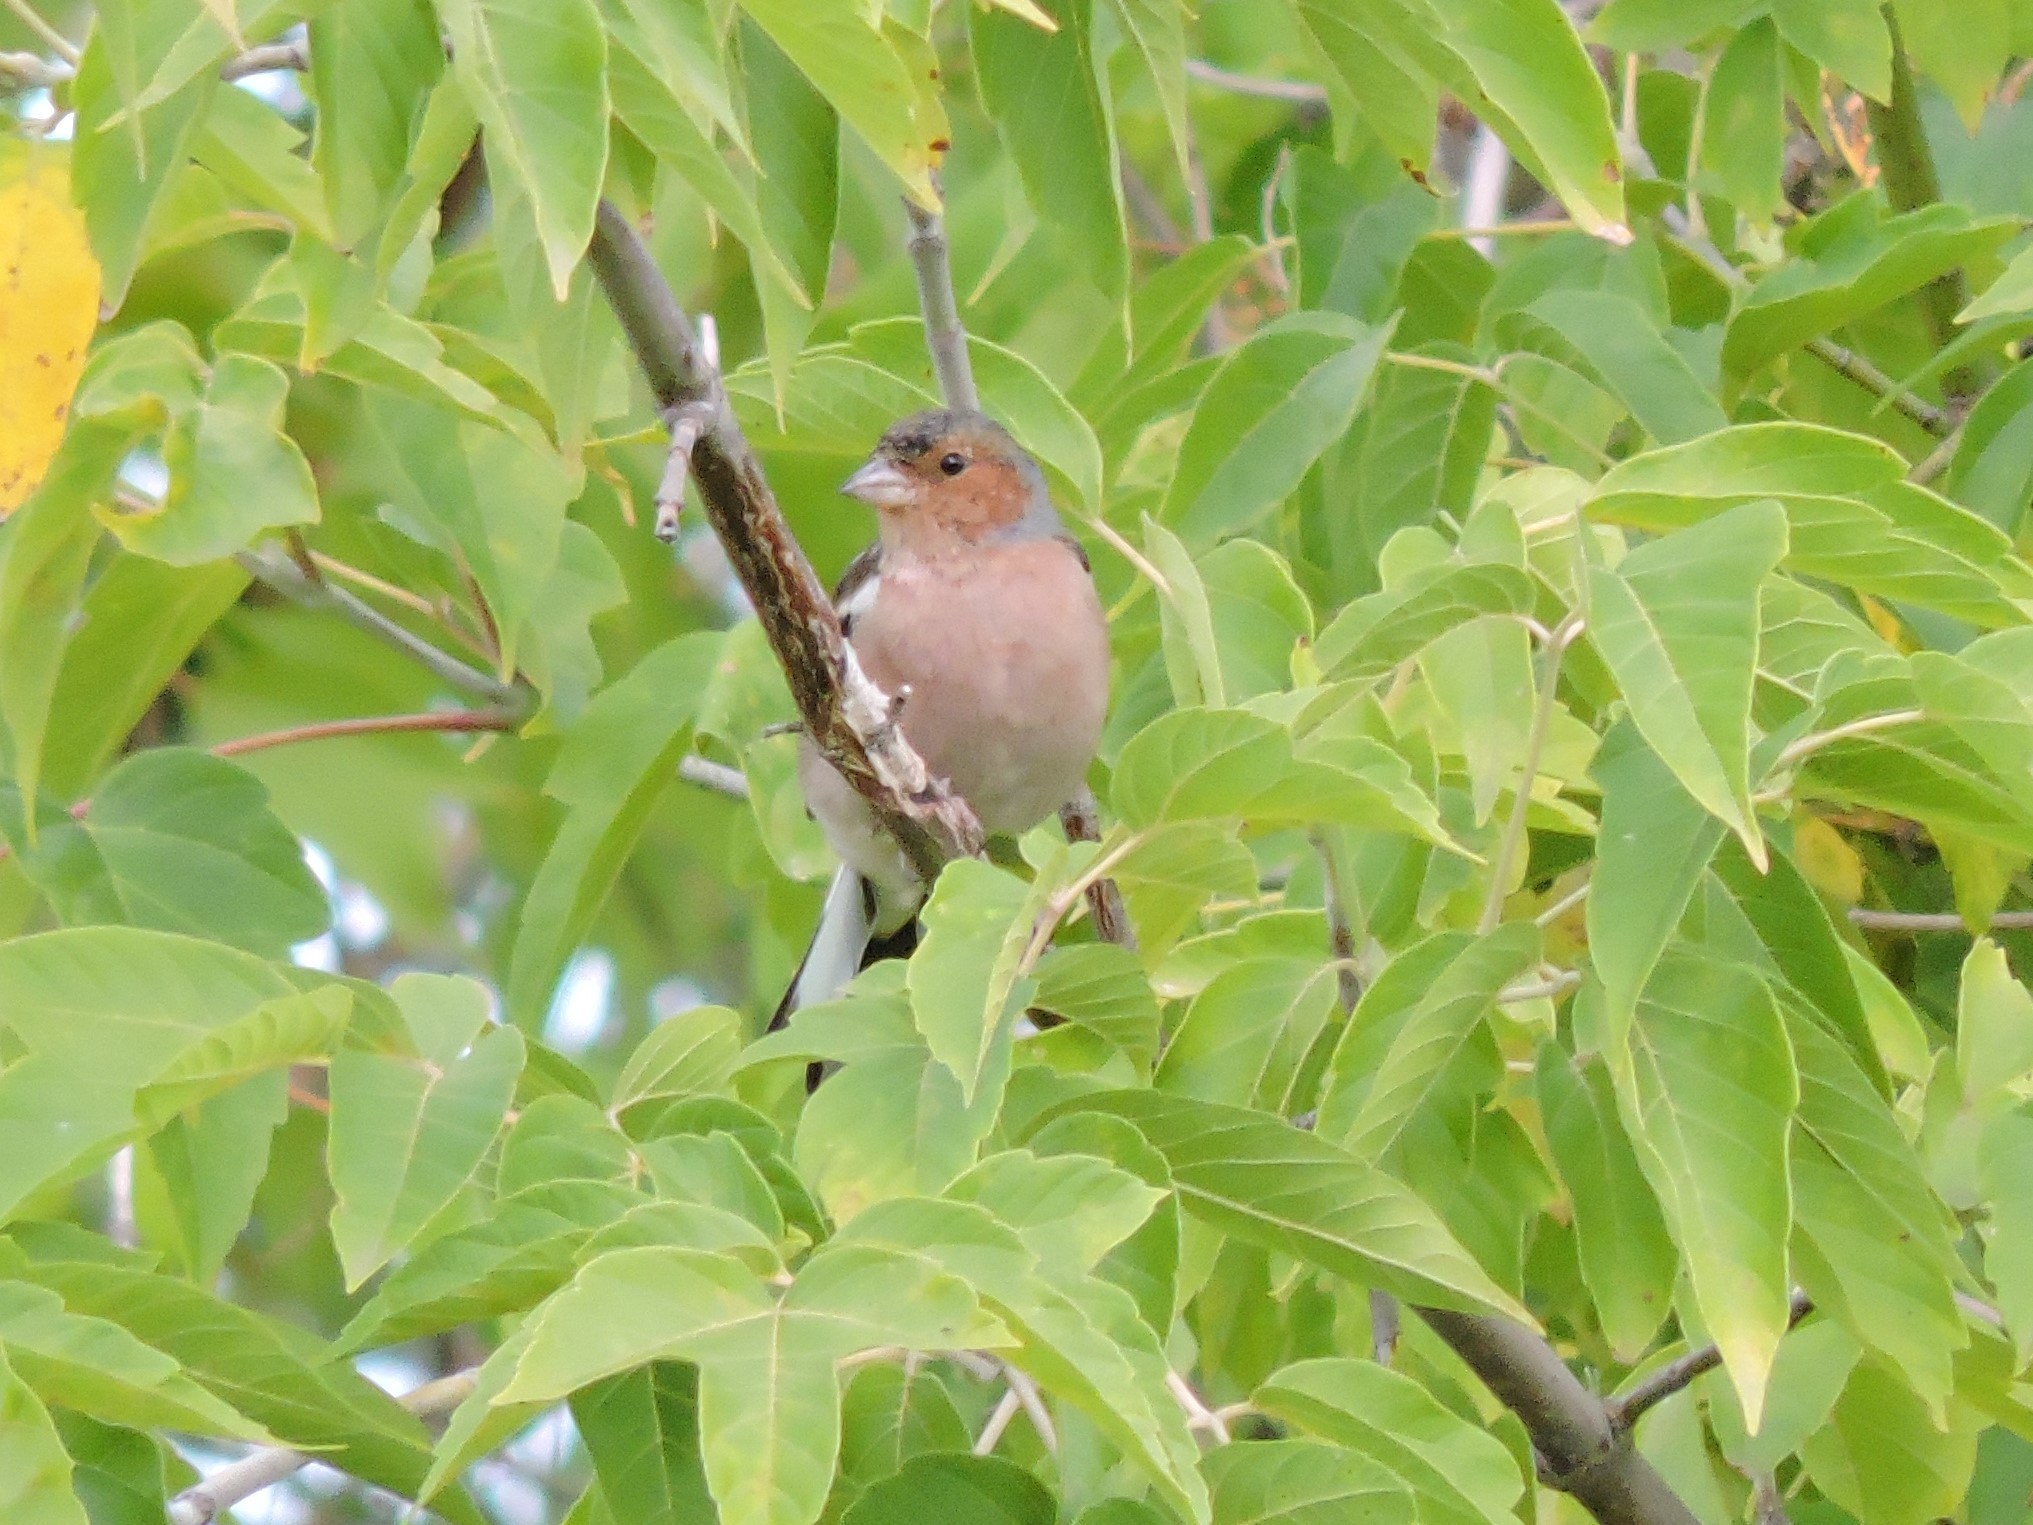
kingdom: Animalia
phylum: Chordata
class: Aves
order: Passeriformes
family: Fringillidae
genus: Fringilla
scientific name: Fringilla coelebs
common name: Common chaffinch
